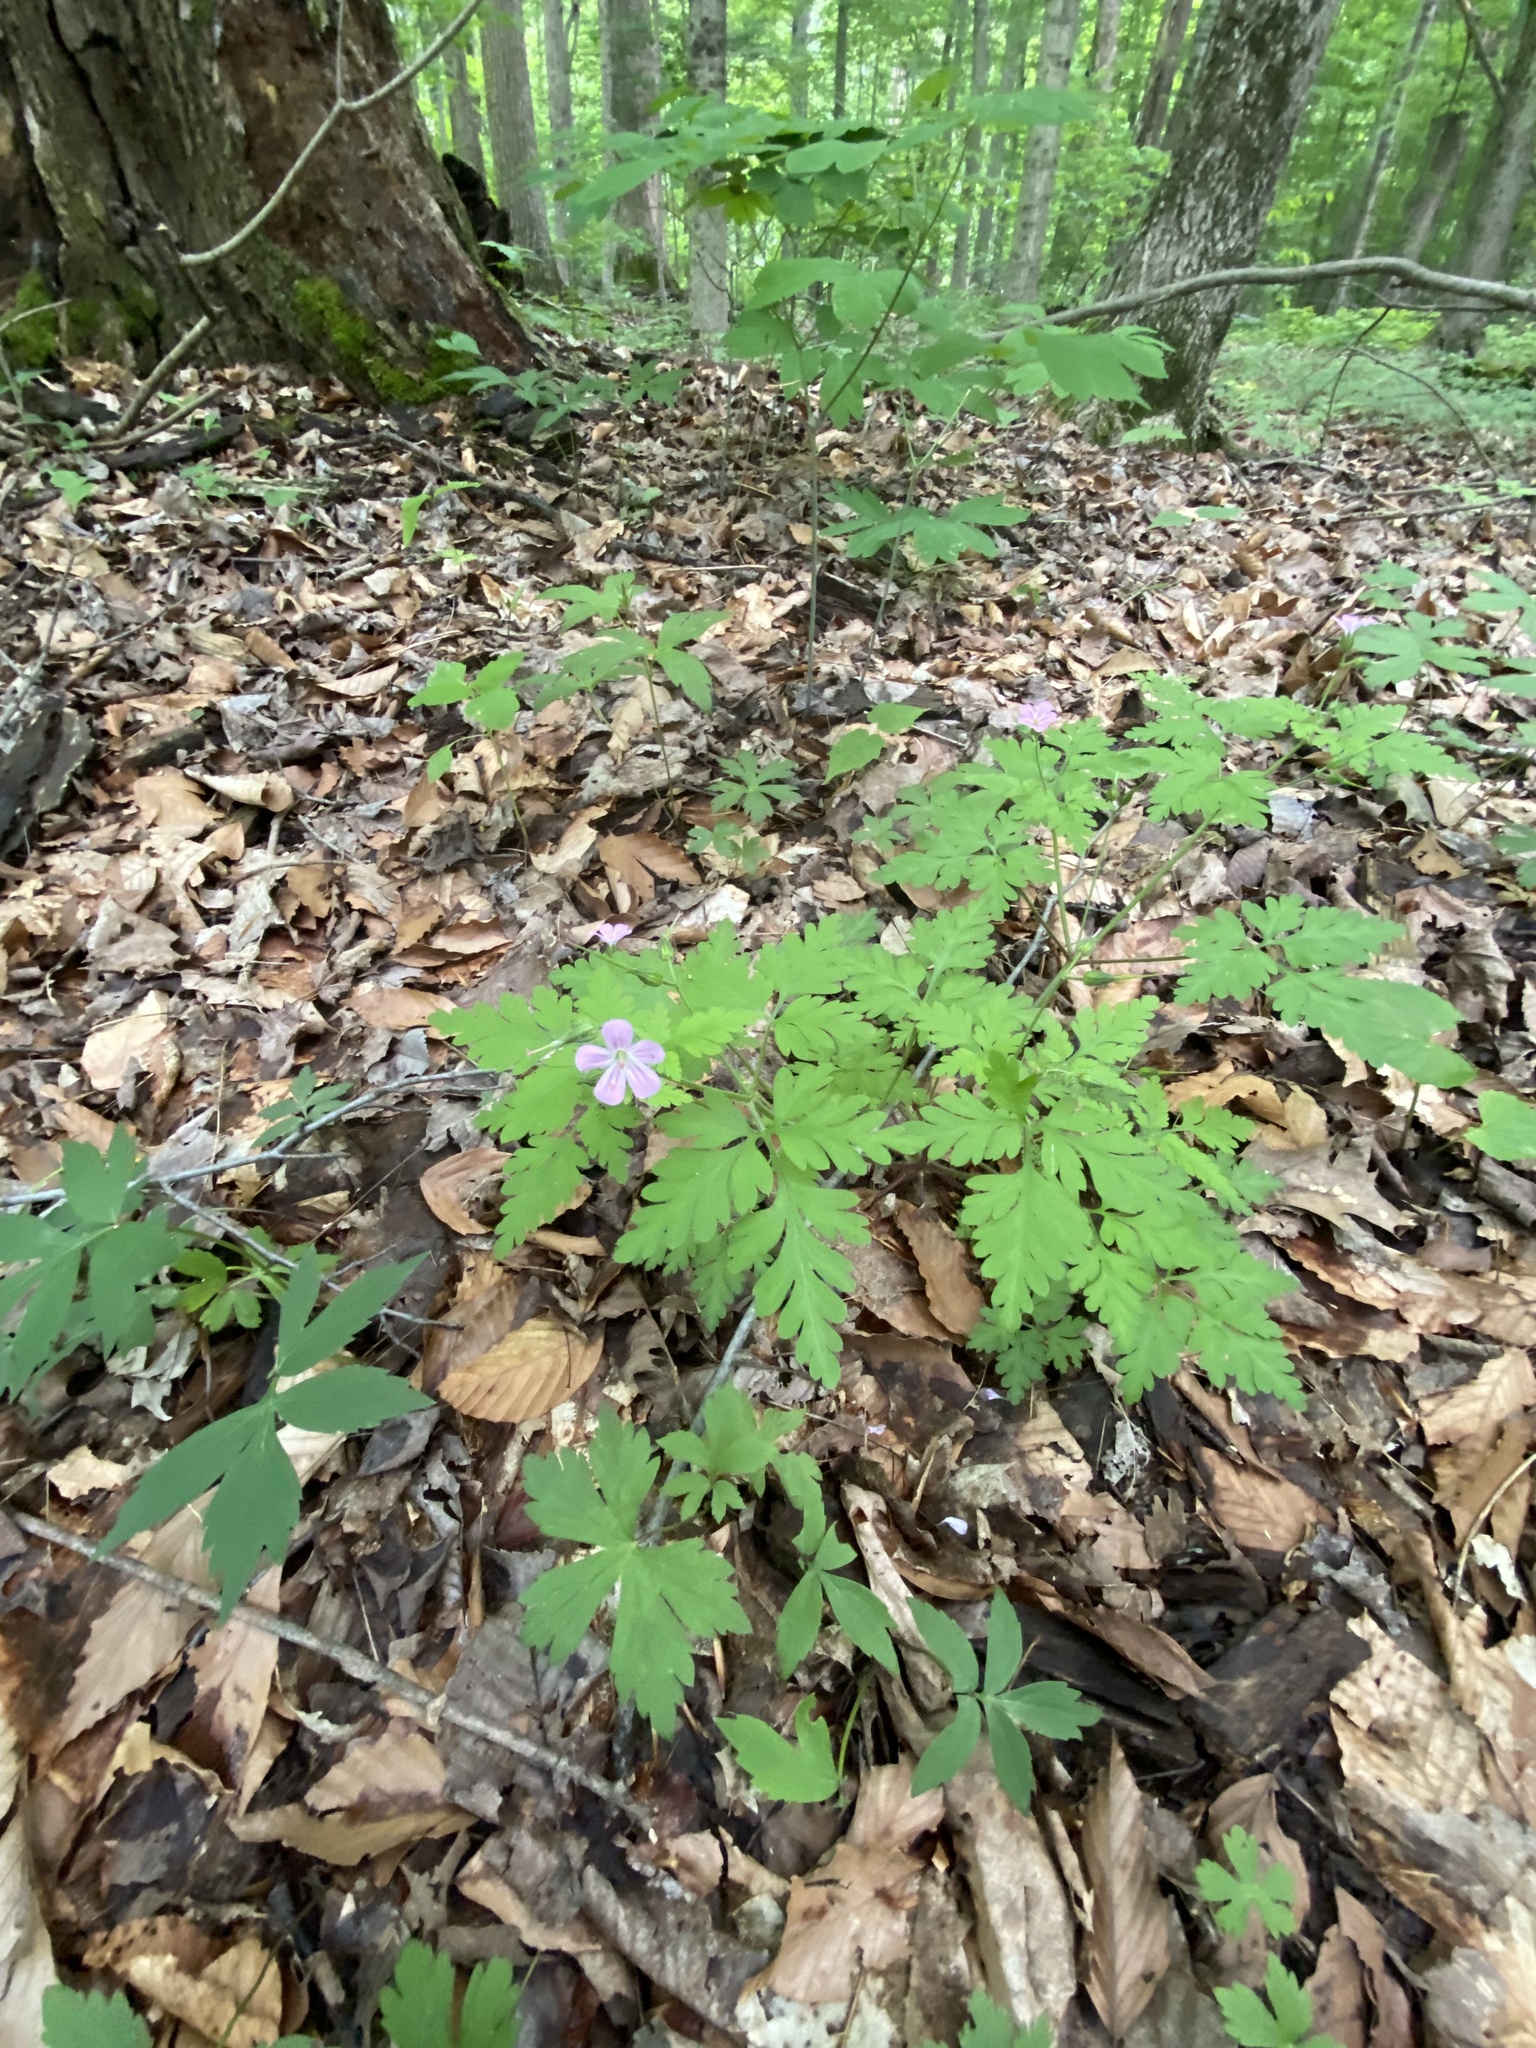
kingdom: Plantae
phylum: Tracheophyta
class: Magnoliopsida
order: Geraniales
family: Geraniaceae
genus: Geranium
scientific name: Geranium robertianum
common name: Herb-robert
